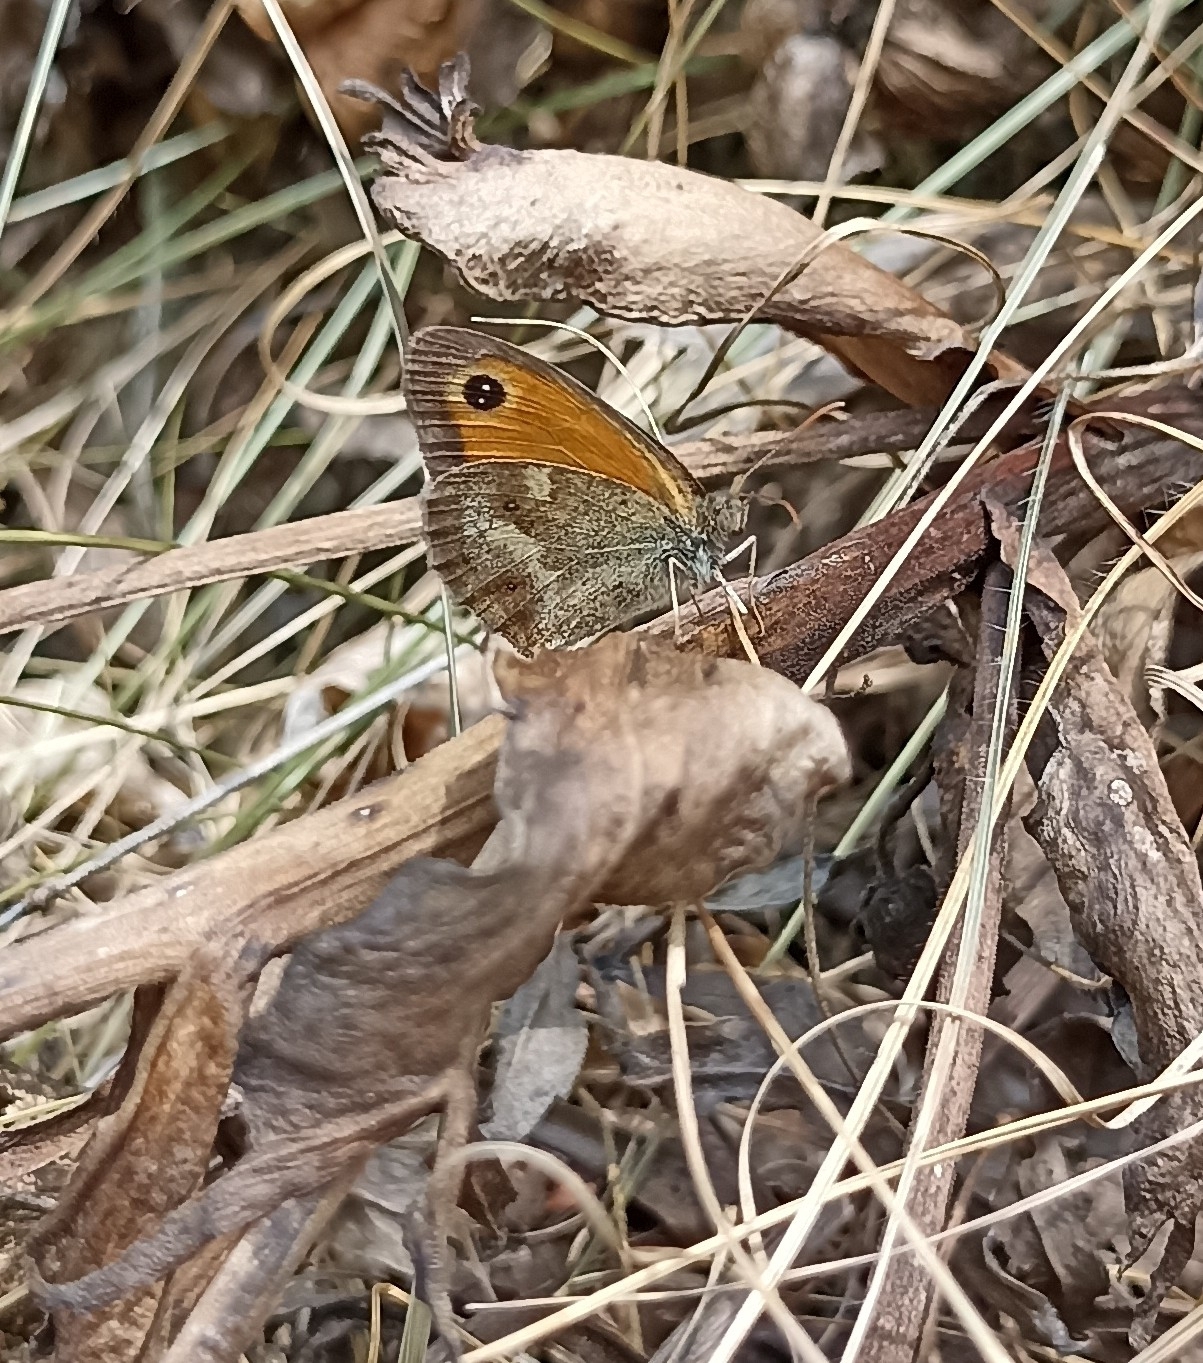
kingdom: Animalia
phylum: Arthropoda
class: Insecta
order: Lepidoptera
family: Nymphalidae
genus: Pyronia
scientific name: Pyronia tithonus
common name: Gatekeeper
